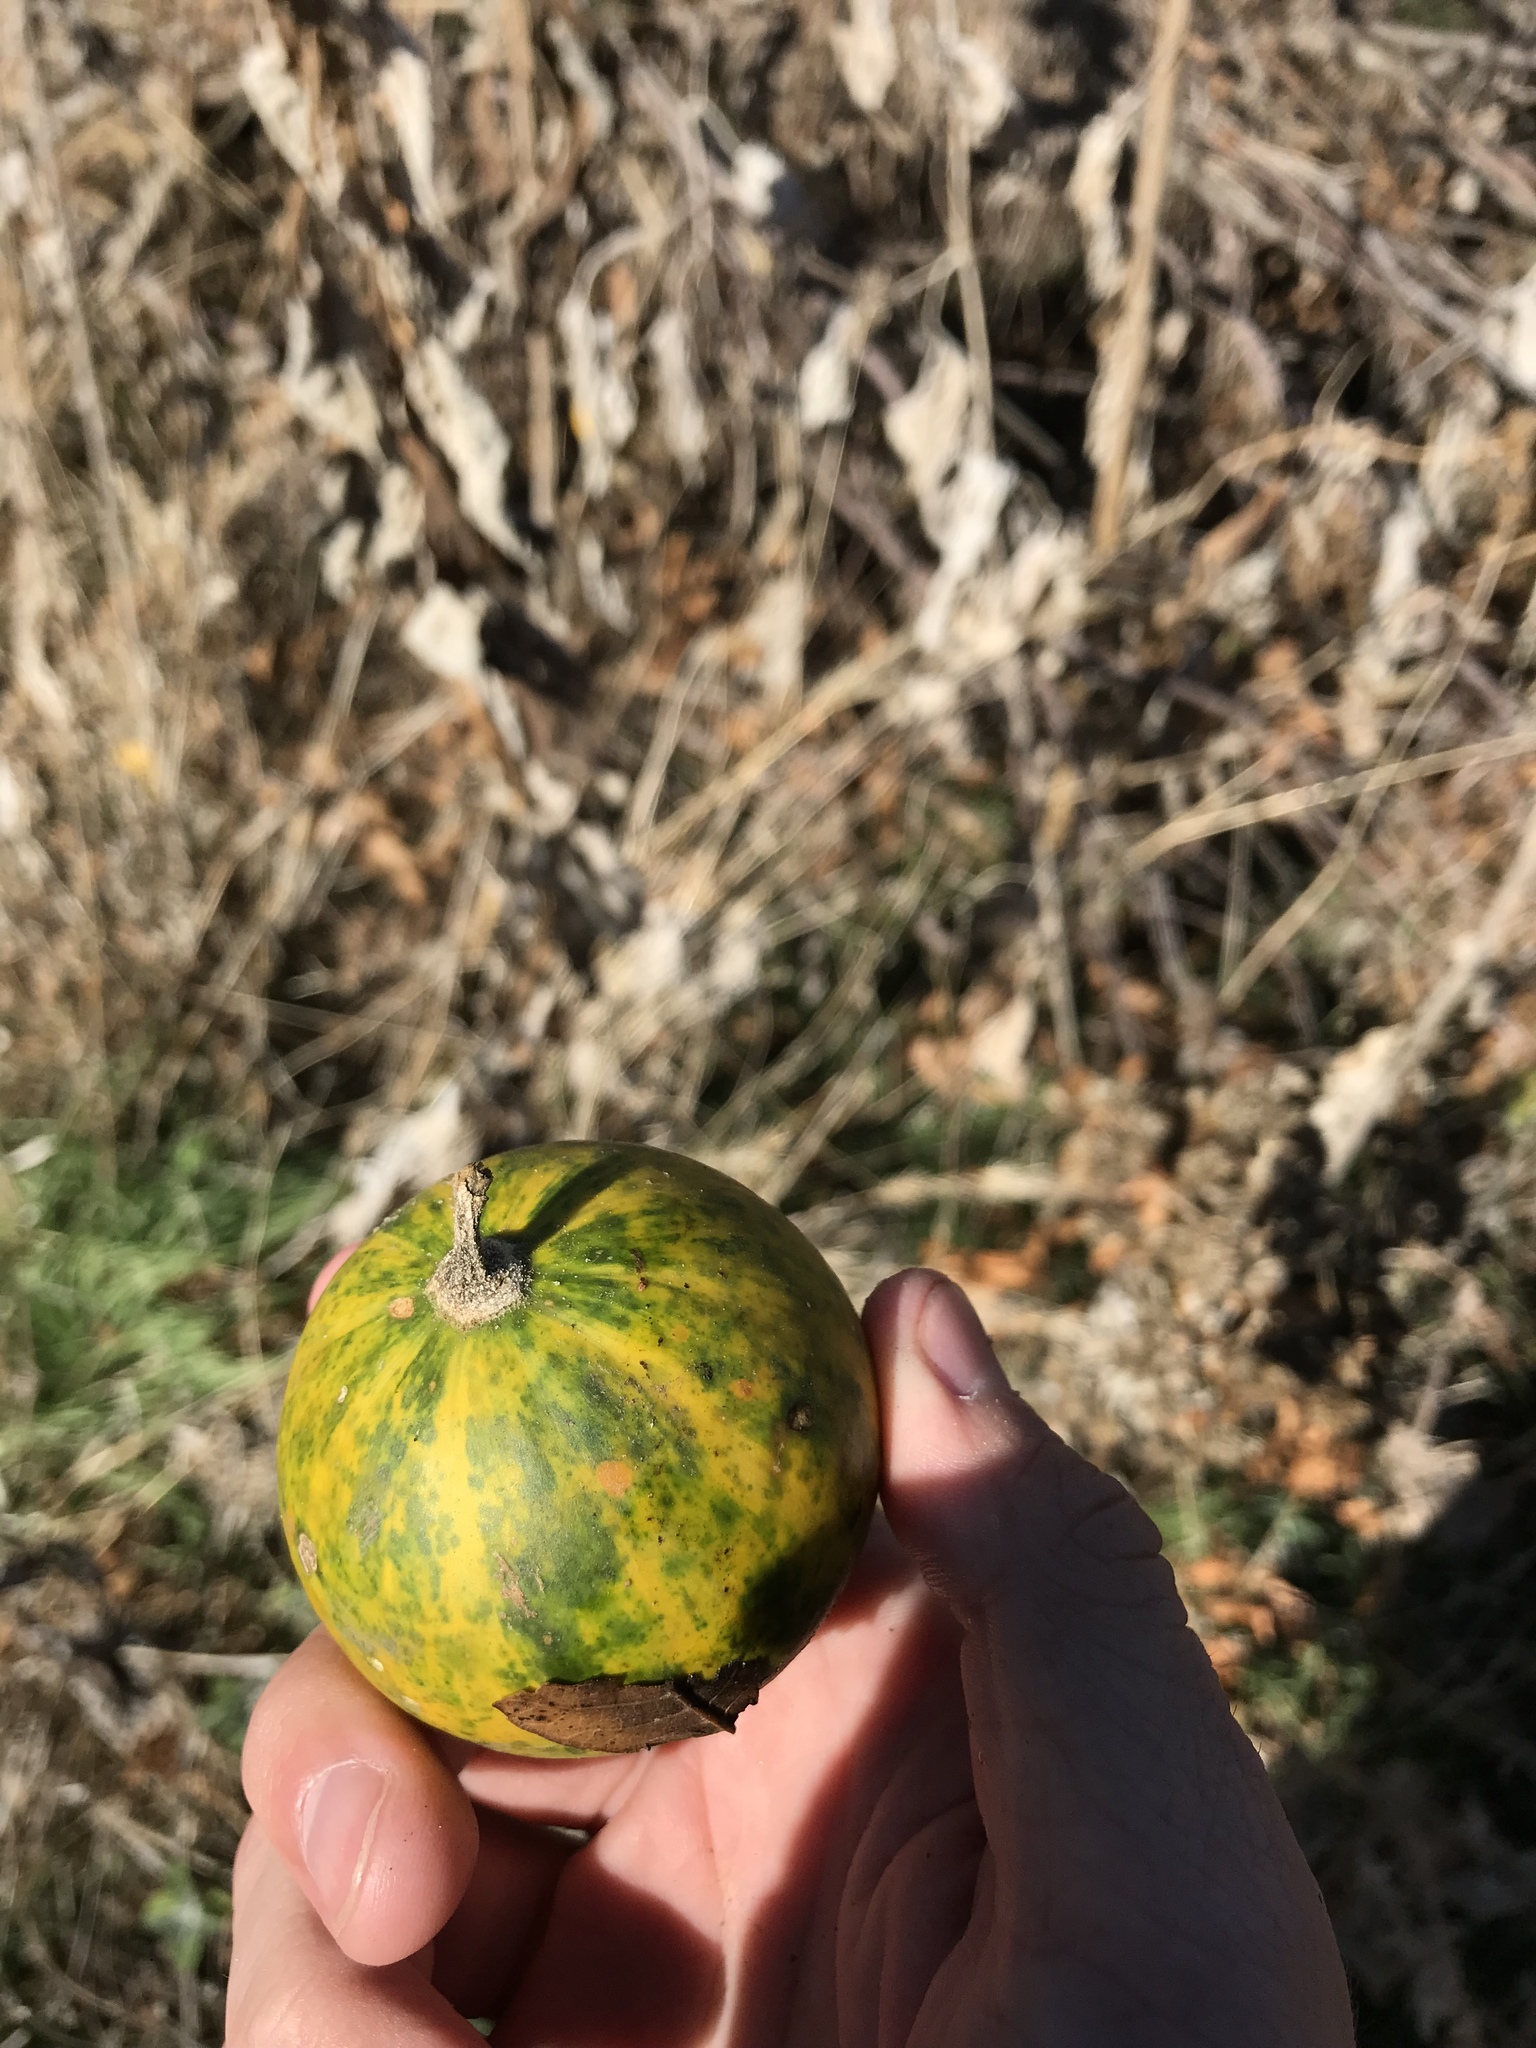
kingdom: Plantae
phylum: Tracheophyta
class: Magnoliopsida
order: Cucurbitales
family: Cucurbitaceae
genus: Cucurbita
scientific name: Cucurbita foetidissima
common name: Buffalo gourd
